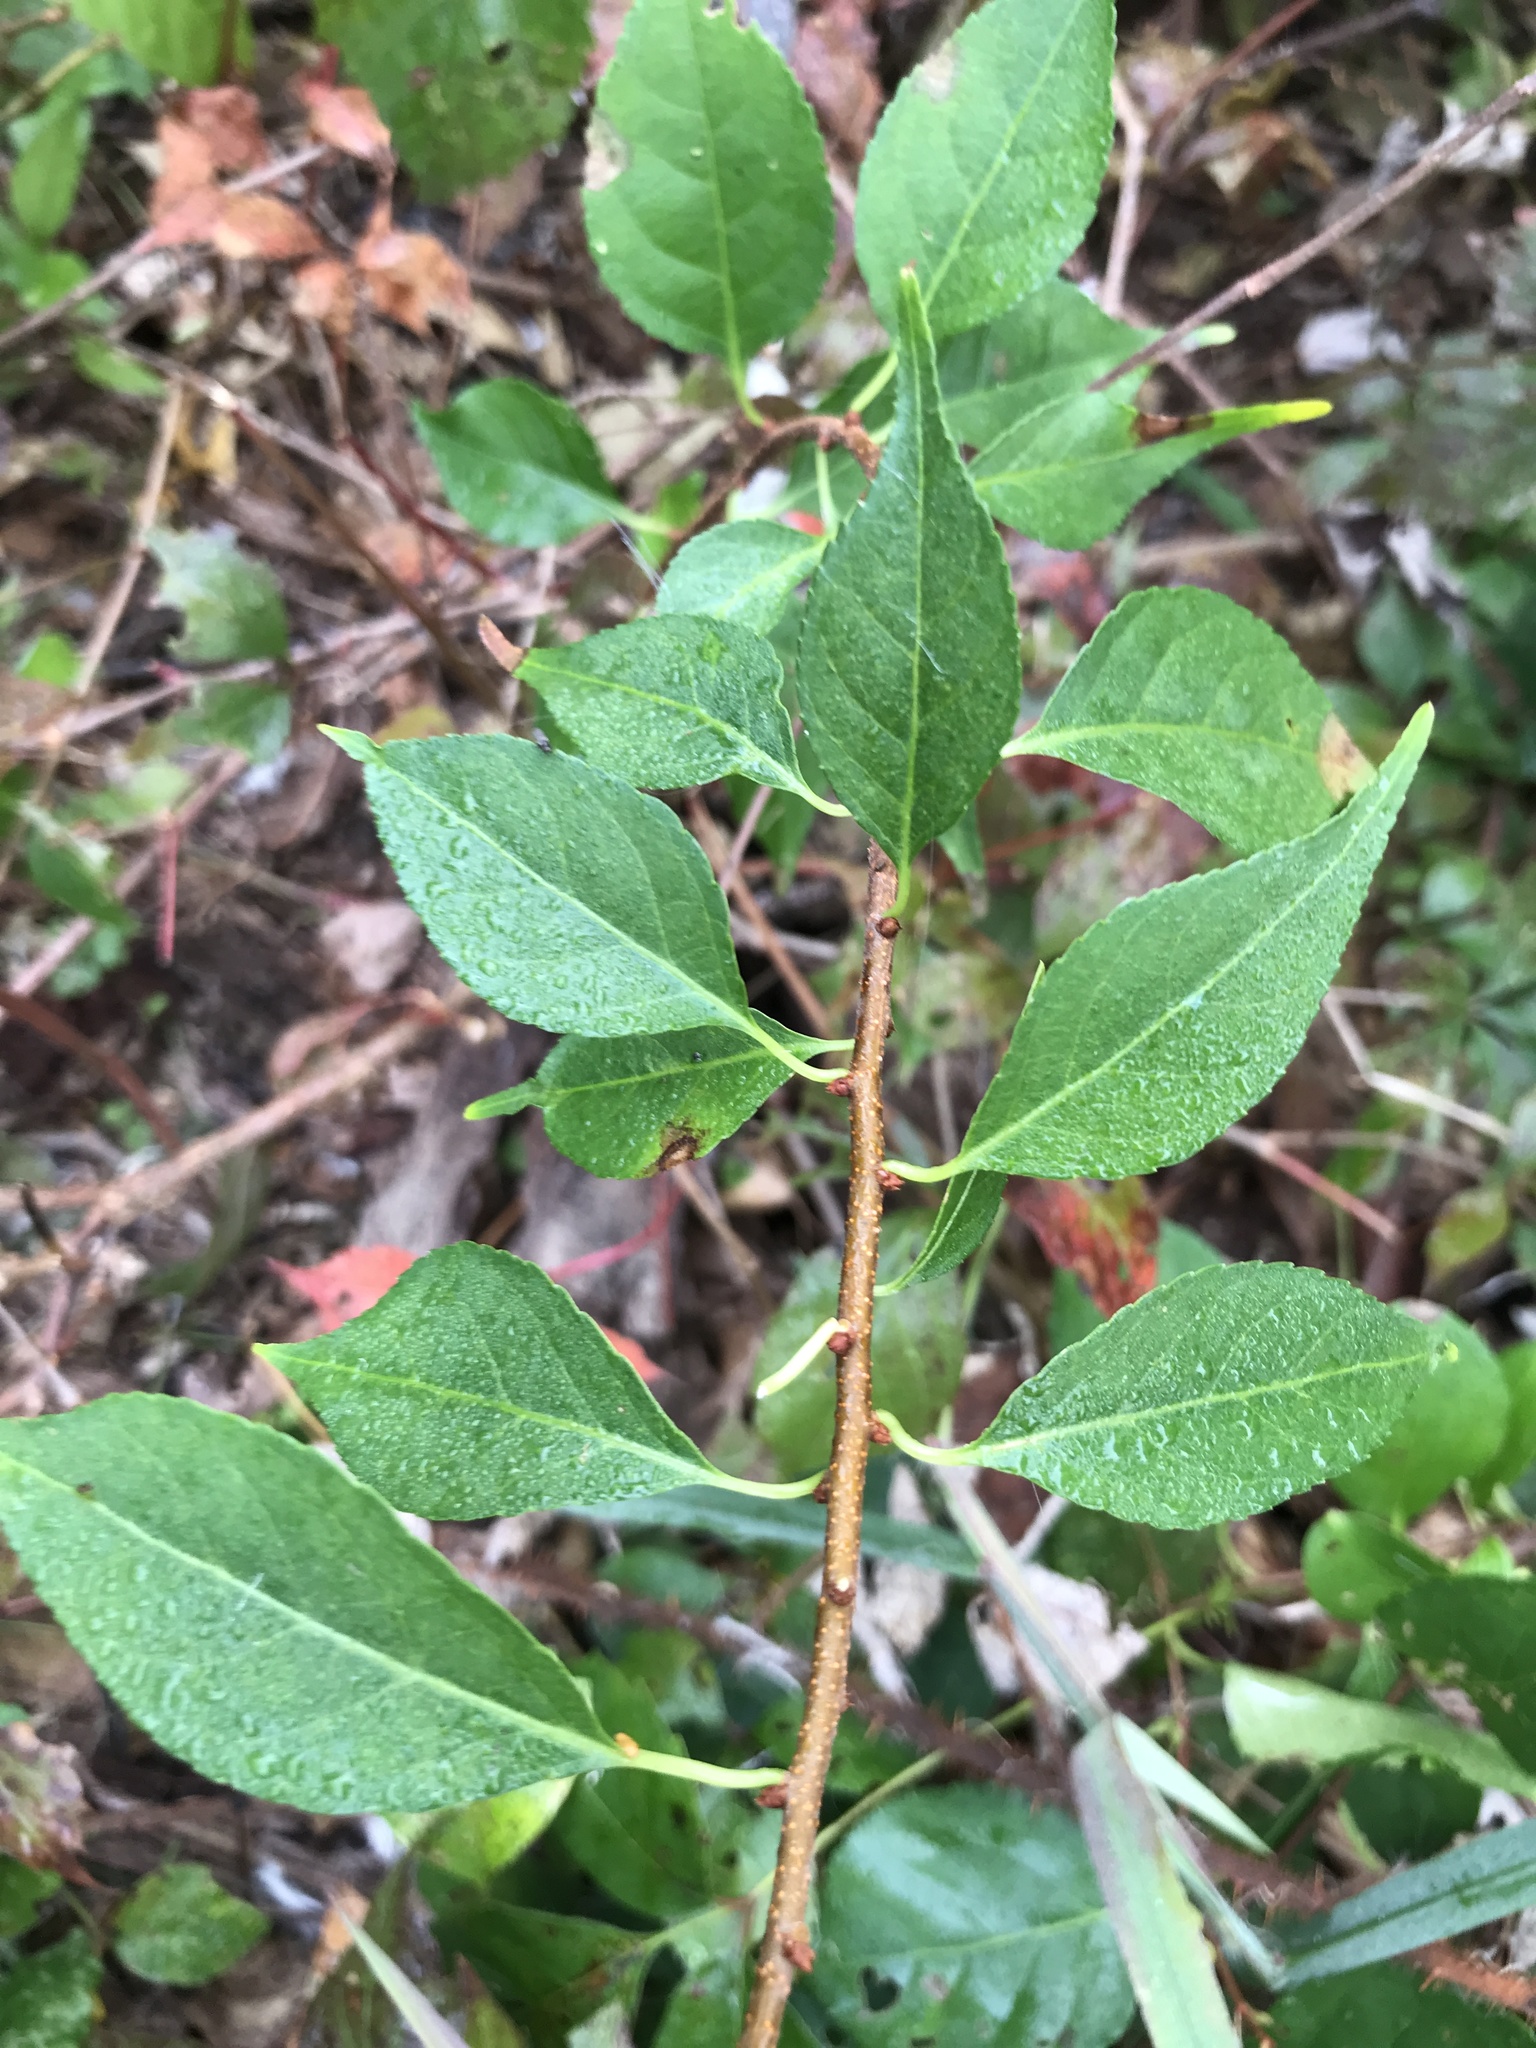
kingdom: Plantae
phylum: Tracheophyta
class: Magnoliopsida
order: Celastrales
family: Celastraceae
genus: Celastrus
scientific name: Celastrus orbiculatus
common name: Oriental bittersweet
